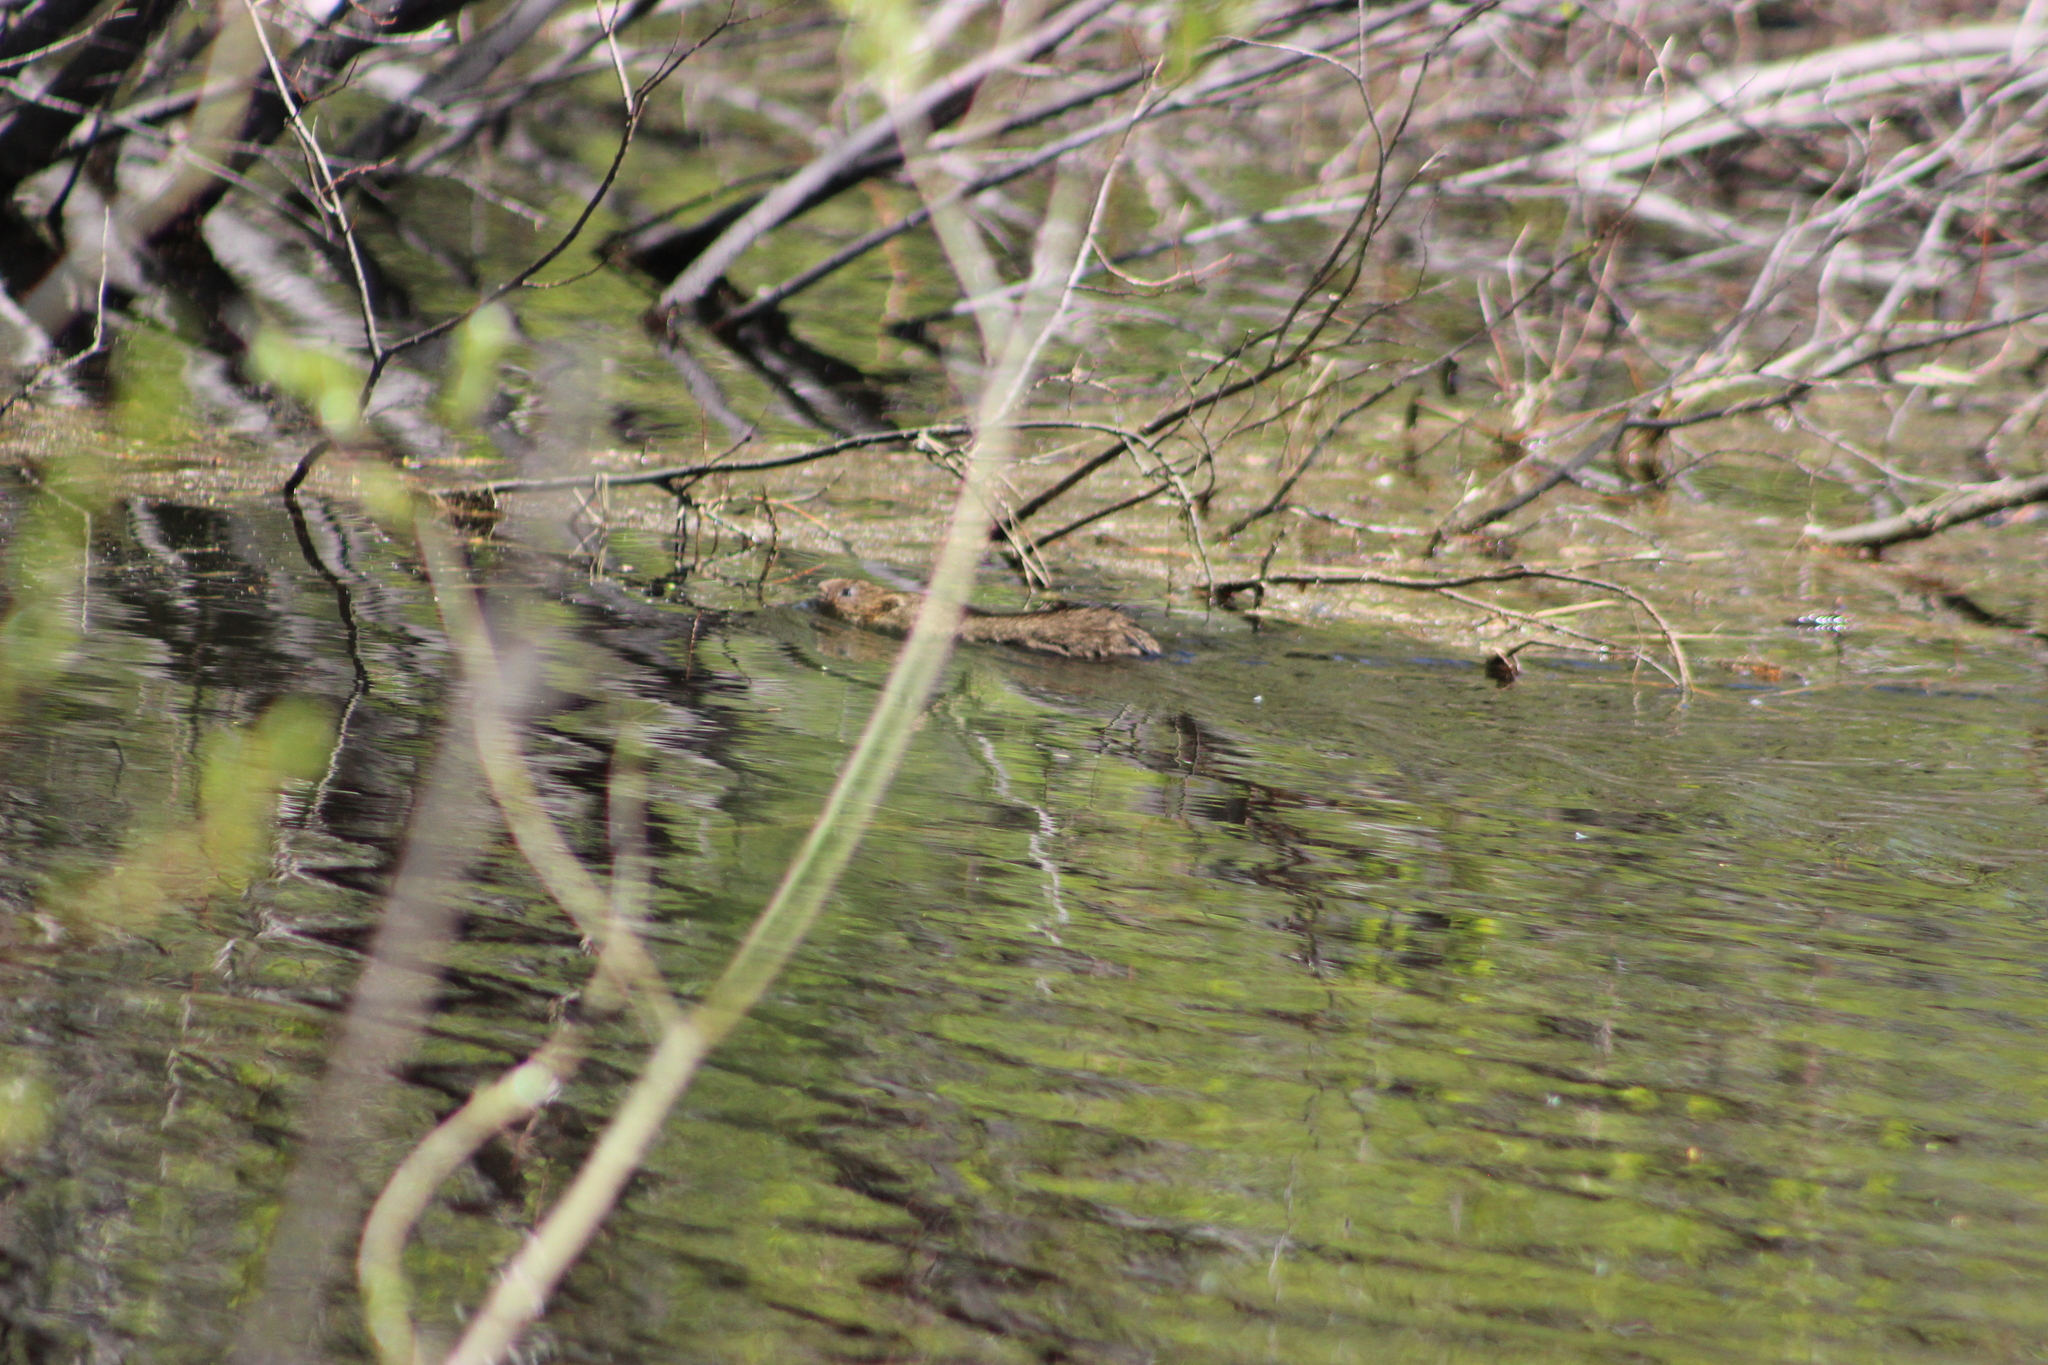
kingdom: Animalia
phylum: Chordata
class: Mammalia
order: Rodentia
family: Cricetidae
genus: Ondatra
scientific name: Ondatra zibethicus
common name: Muskrat
